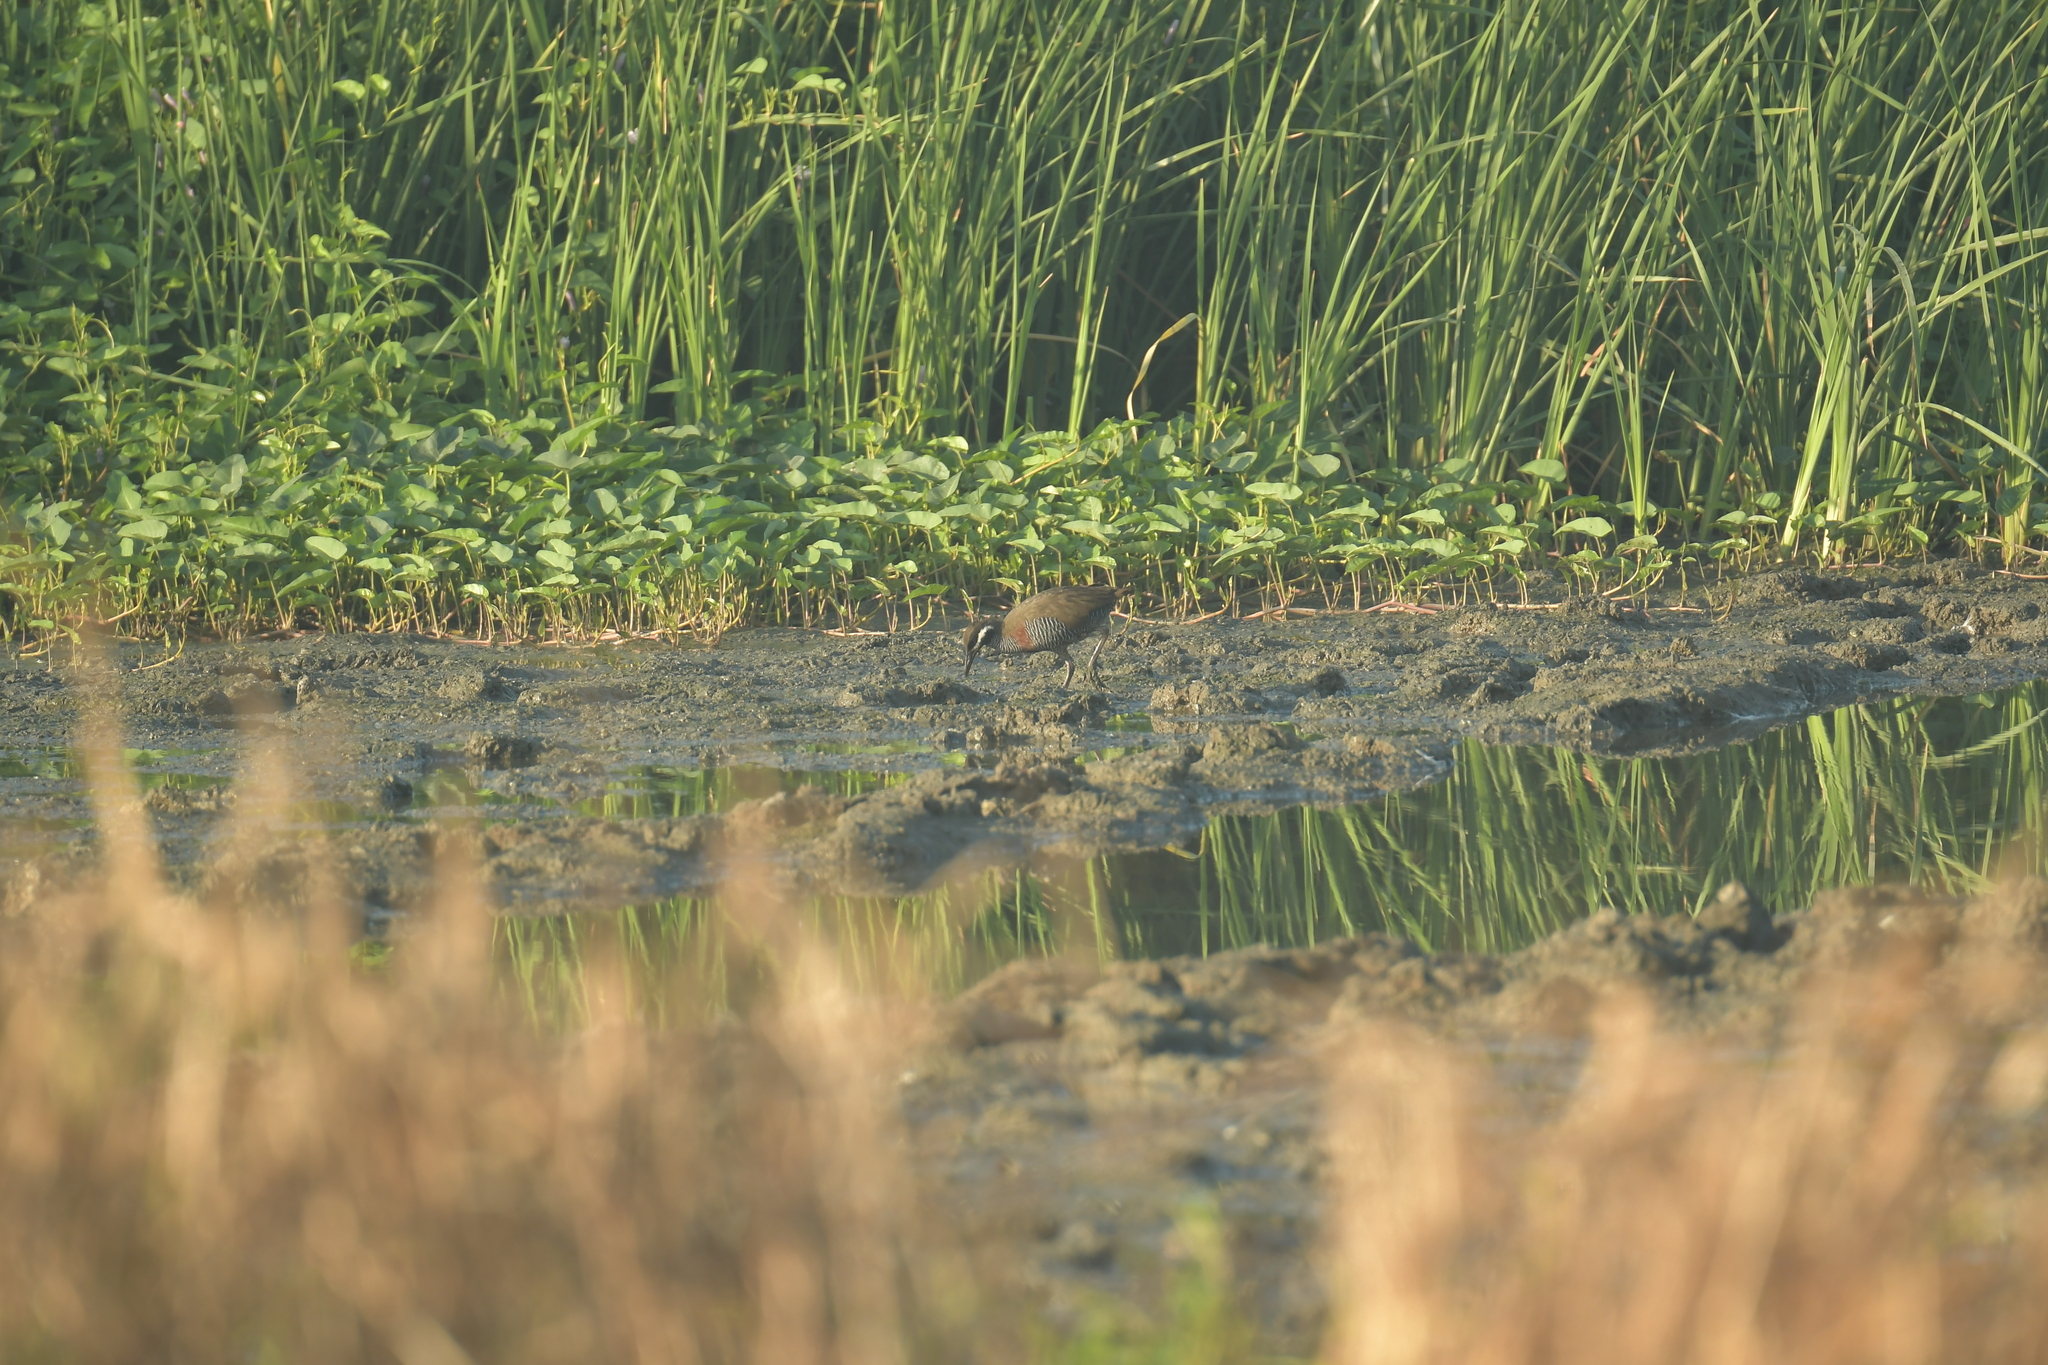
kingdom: Animalia
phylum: Chordata
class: Aves
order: Gruiformes
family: Rallidae
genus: Gallirallus
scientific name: Gallirallus torquatus
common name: Barred rail
